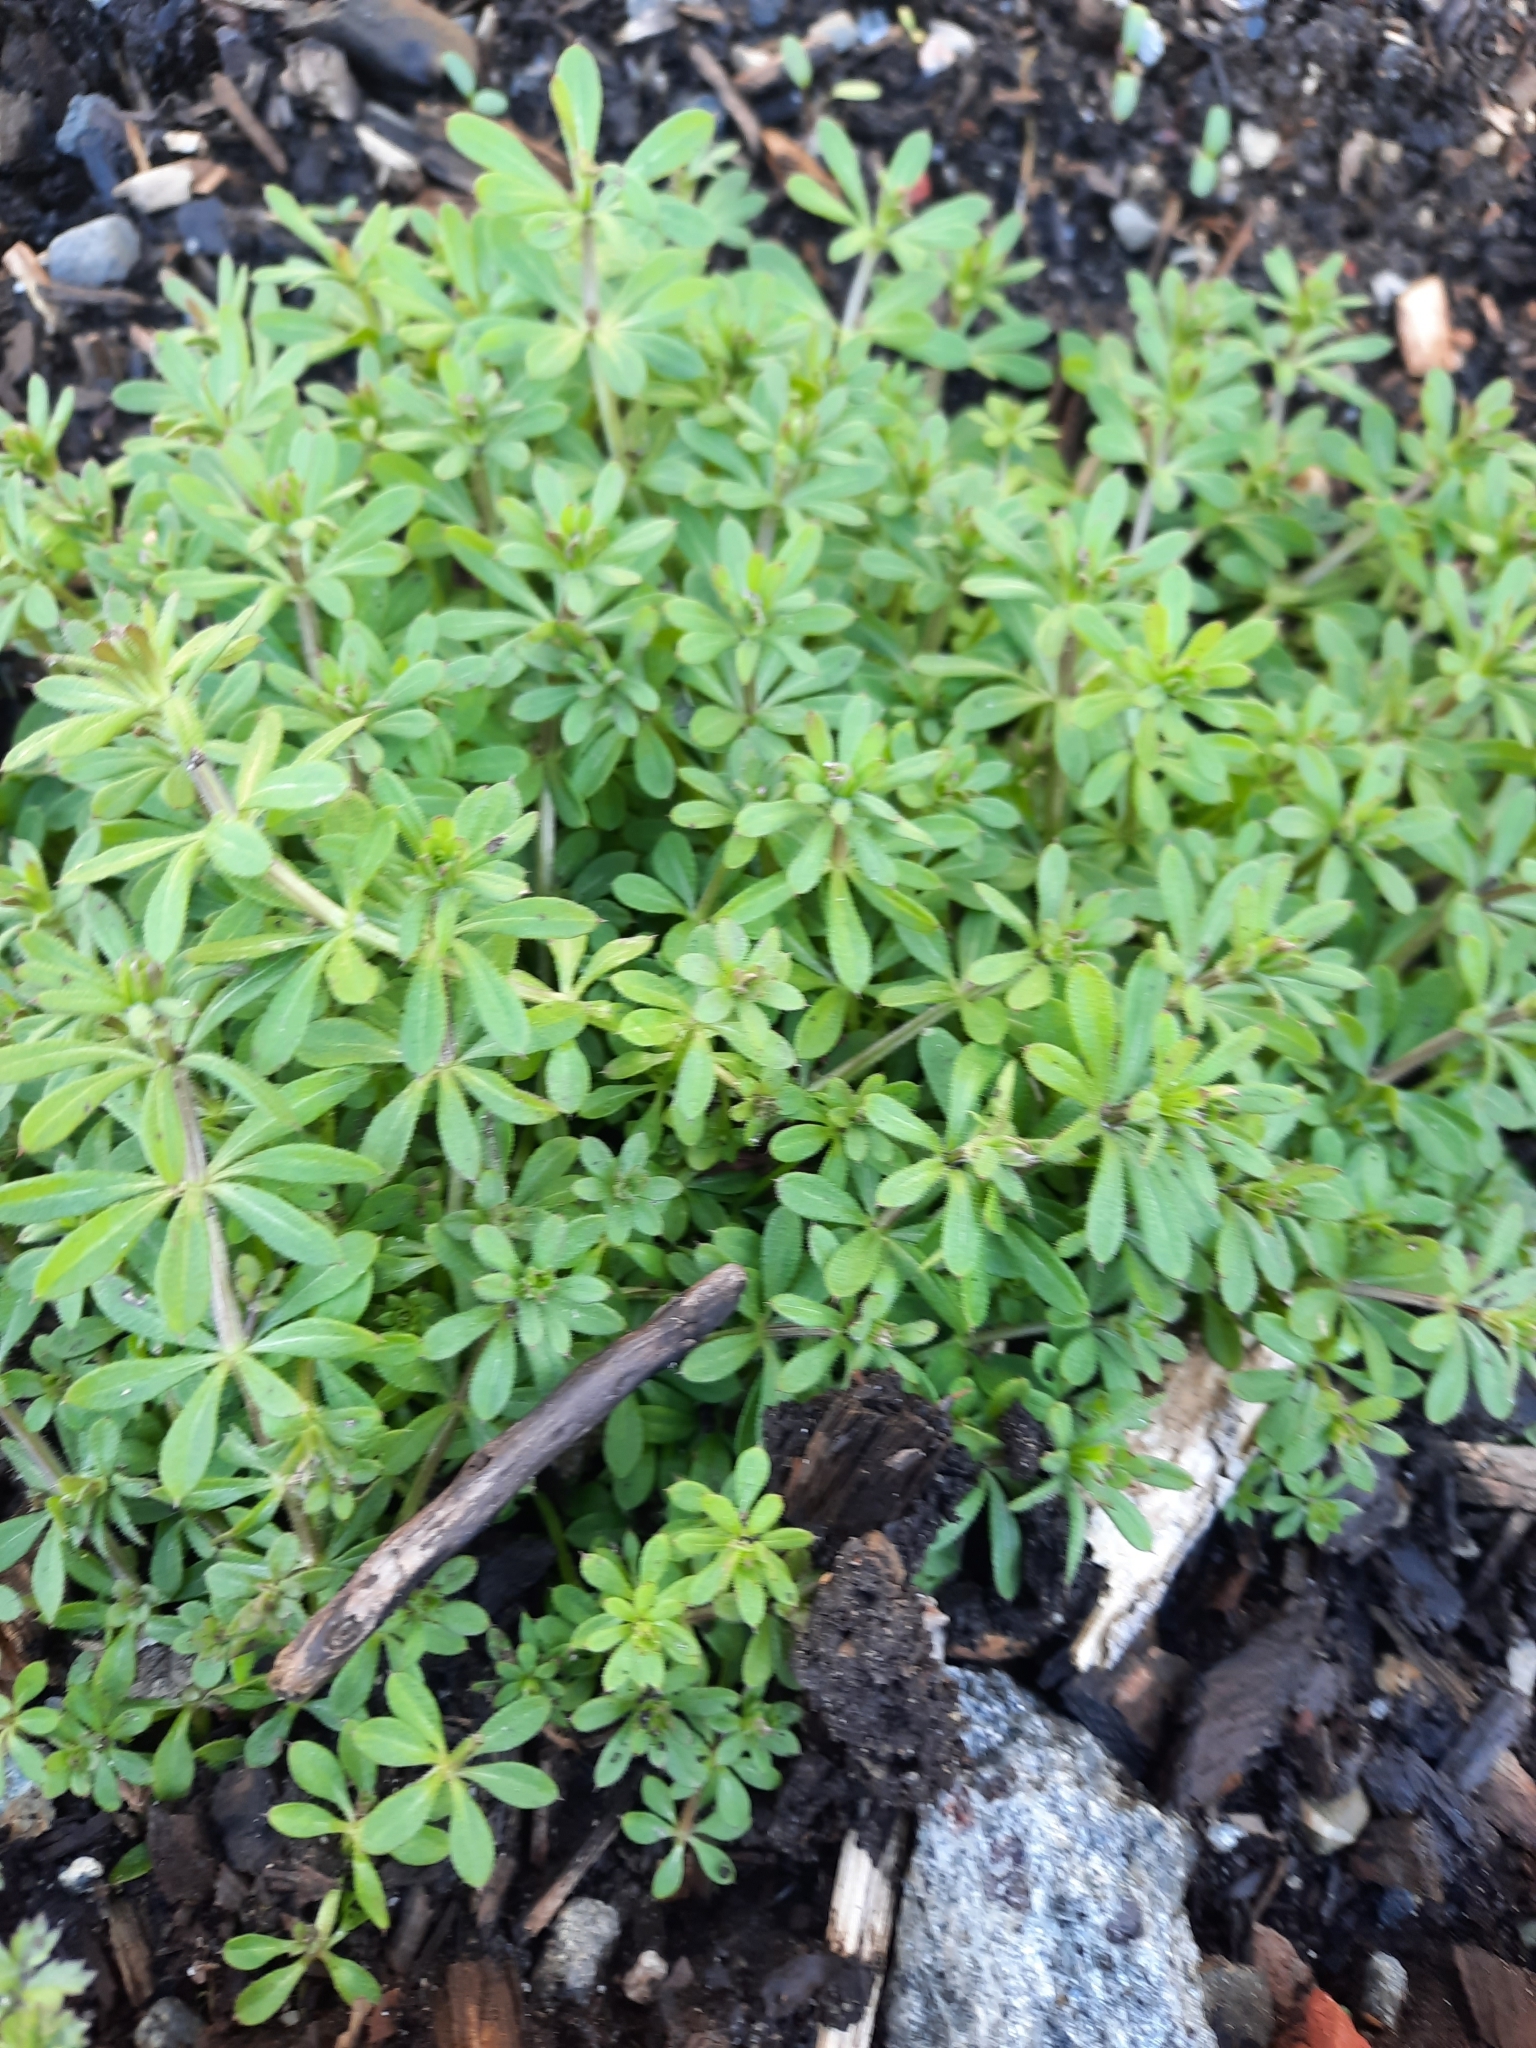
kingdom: Plantae
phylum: Tracheophyta
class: Magnoliopsida
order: Gentianales
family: Rubiaceae
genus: Galium
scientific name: Galium aparine
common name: Cleavers
